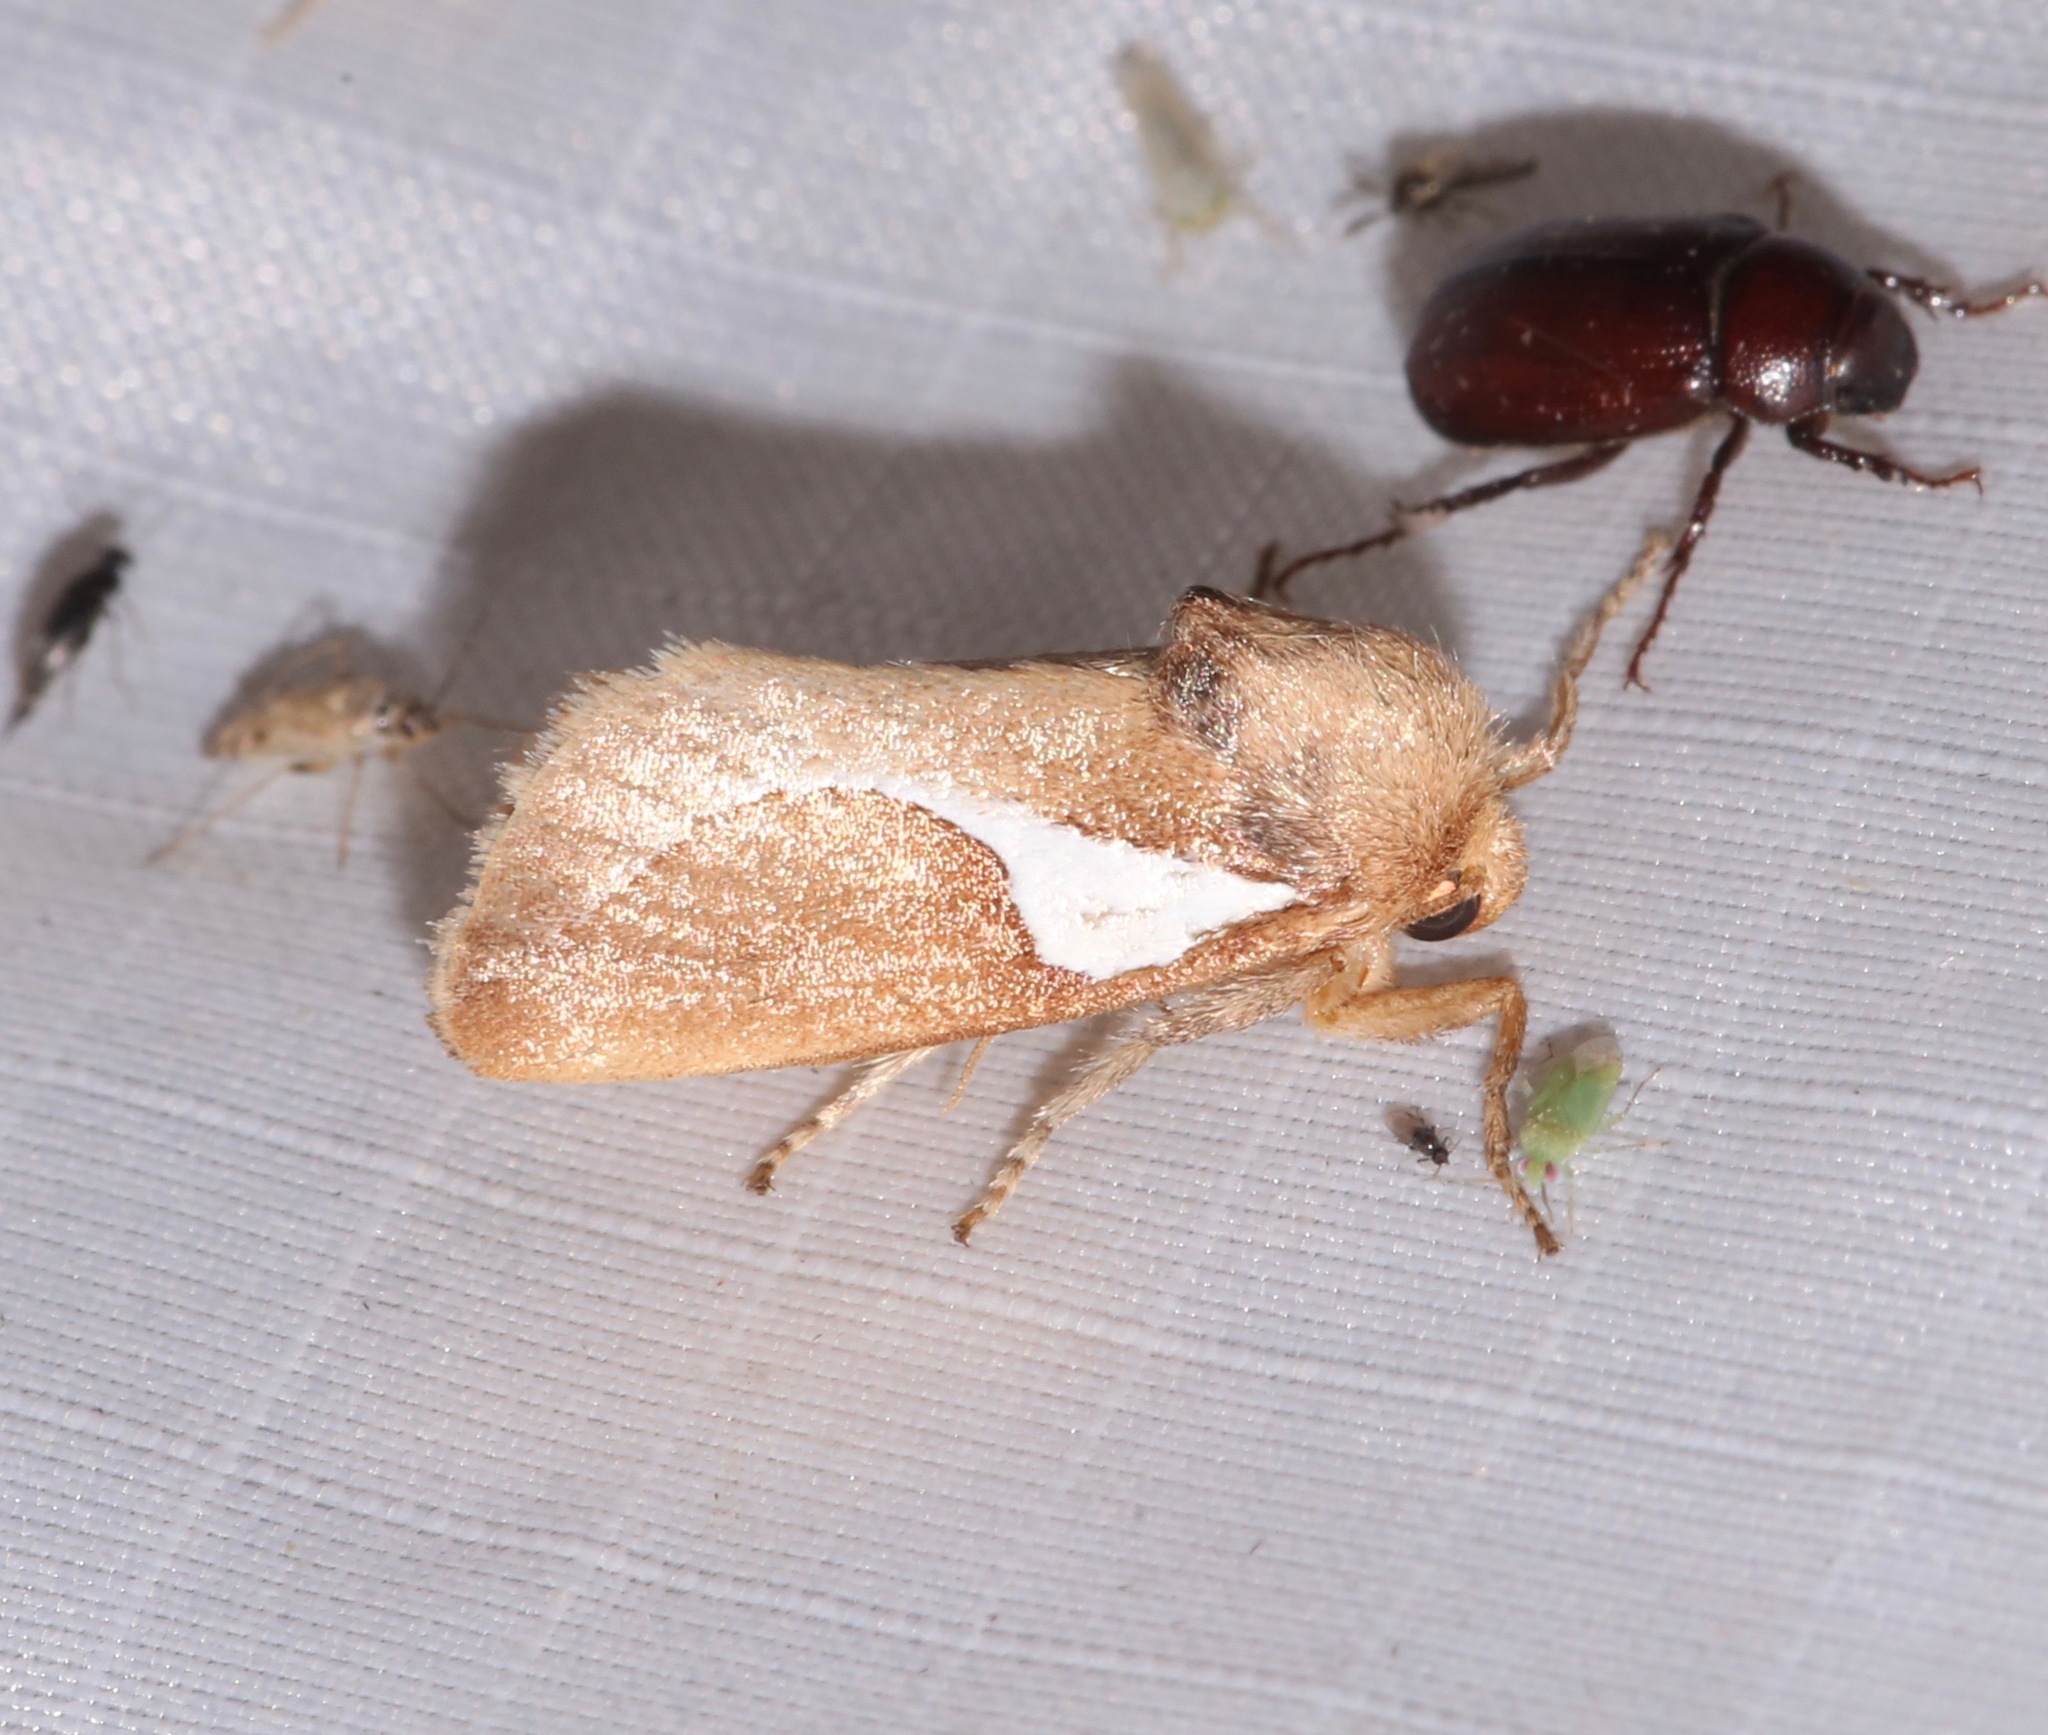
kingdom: Animalia
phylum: Arthropoda
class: Insecta
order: Lepidoptera
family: Limacodidae
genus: Prolimacodes
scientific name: Prolimacodes trigona
